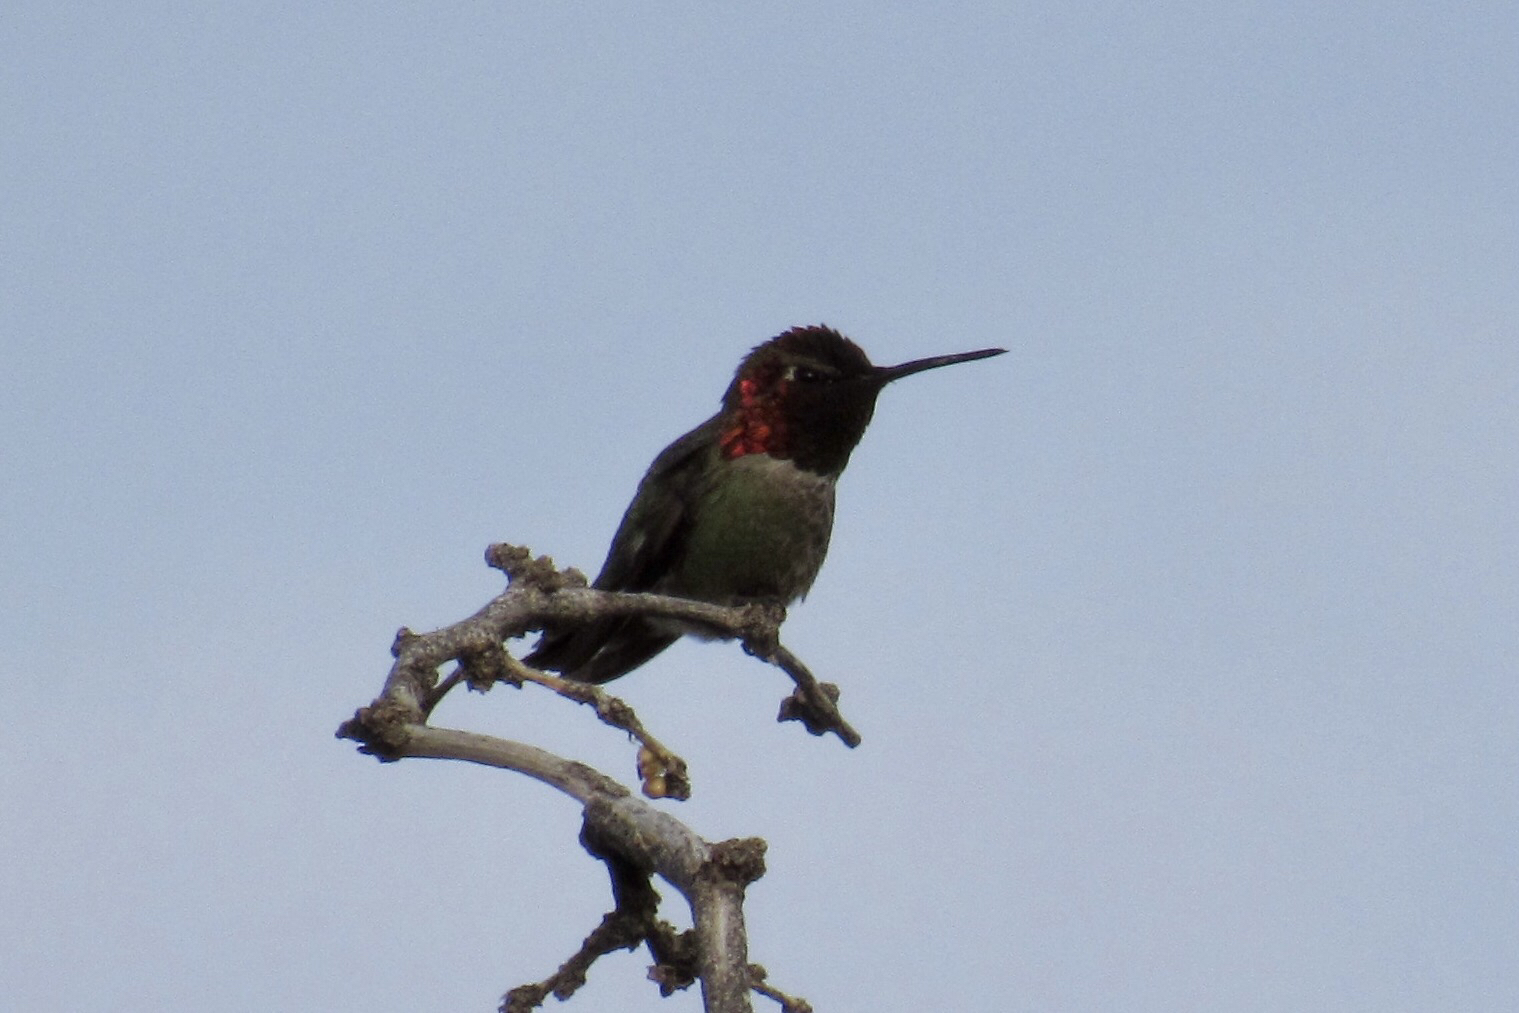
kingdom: Animalia
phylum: Chordata
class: Aves
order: Apodiformes
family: Trochilidae
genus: Calypte
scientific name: Calypte anna
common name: Anna's hummingbird
